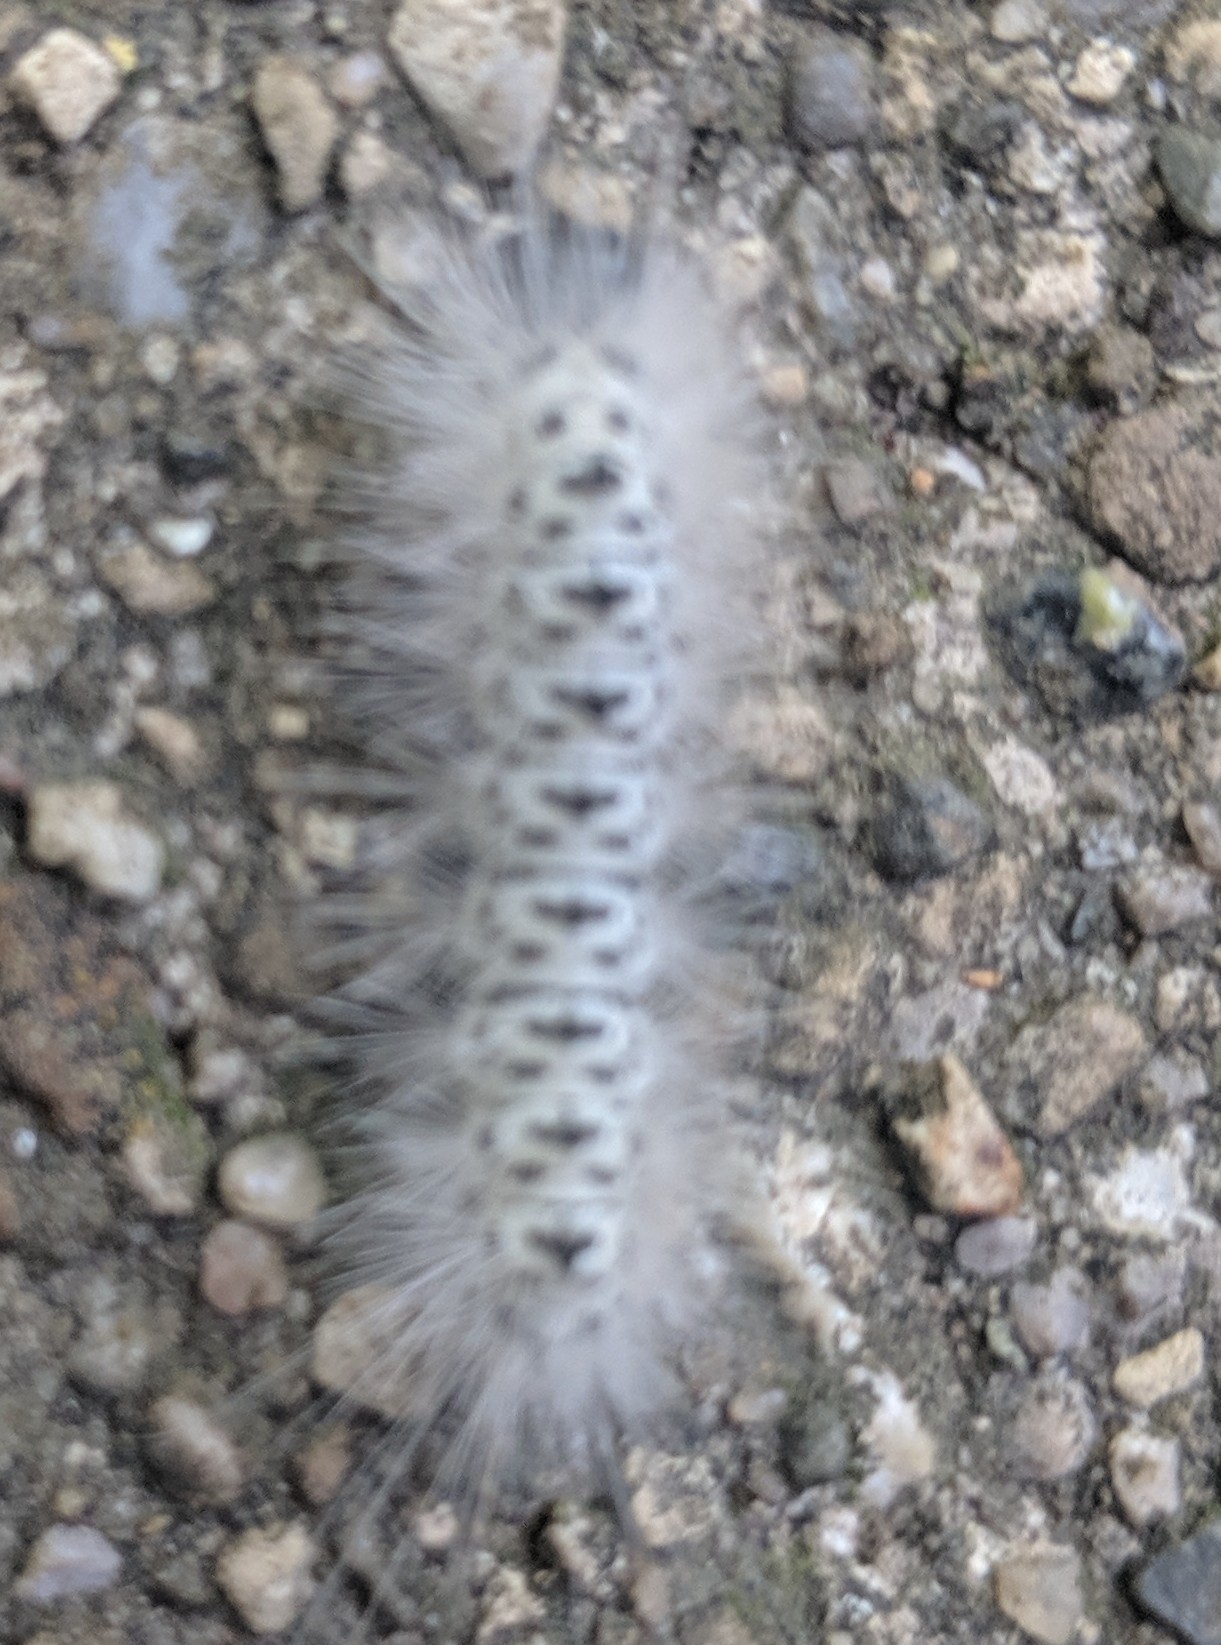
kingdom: Animalia
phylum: Arthropoda
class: Insecta
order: Lepidoptera
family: Erebidae
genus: Lophocampa
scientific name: Lophocampa caryae
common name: Hickory tussock moth
